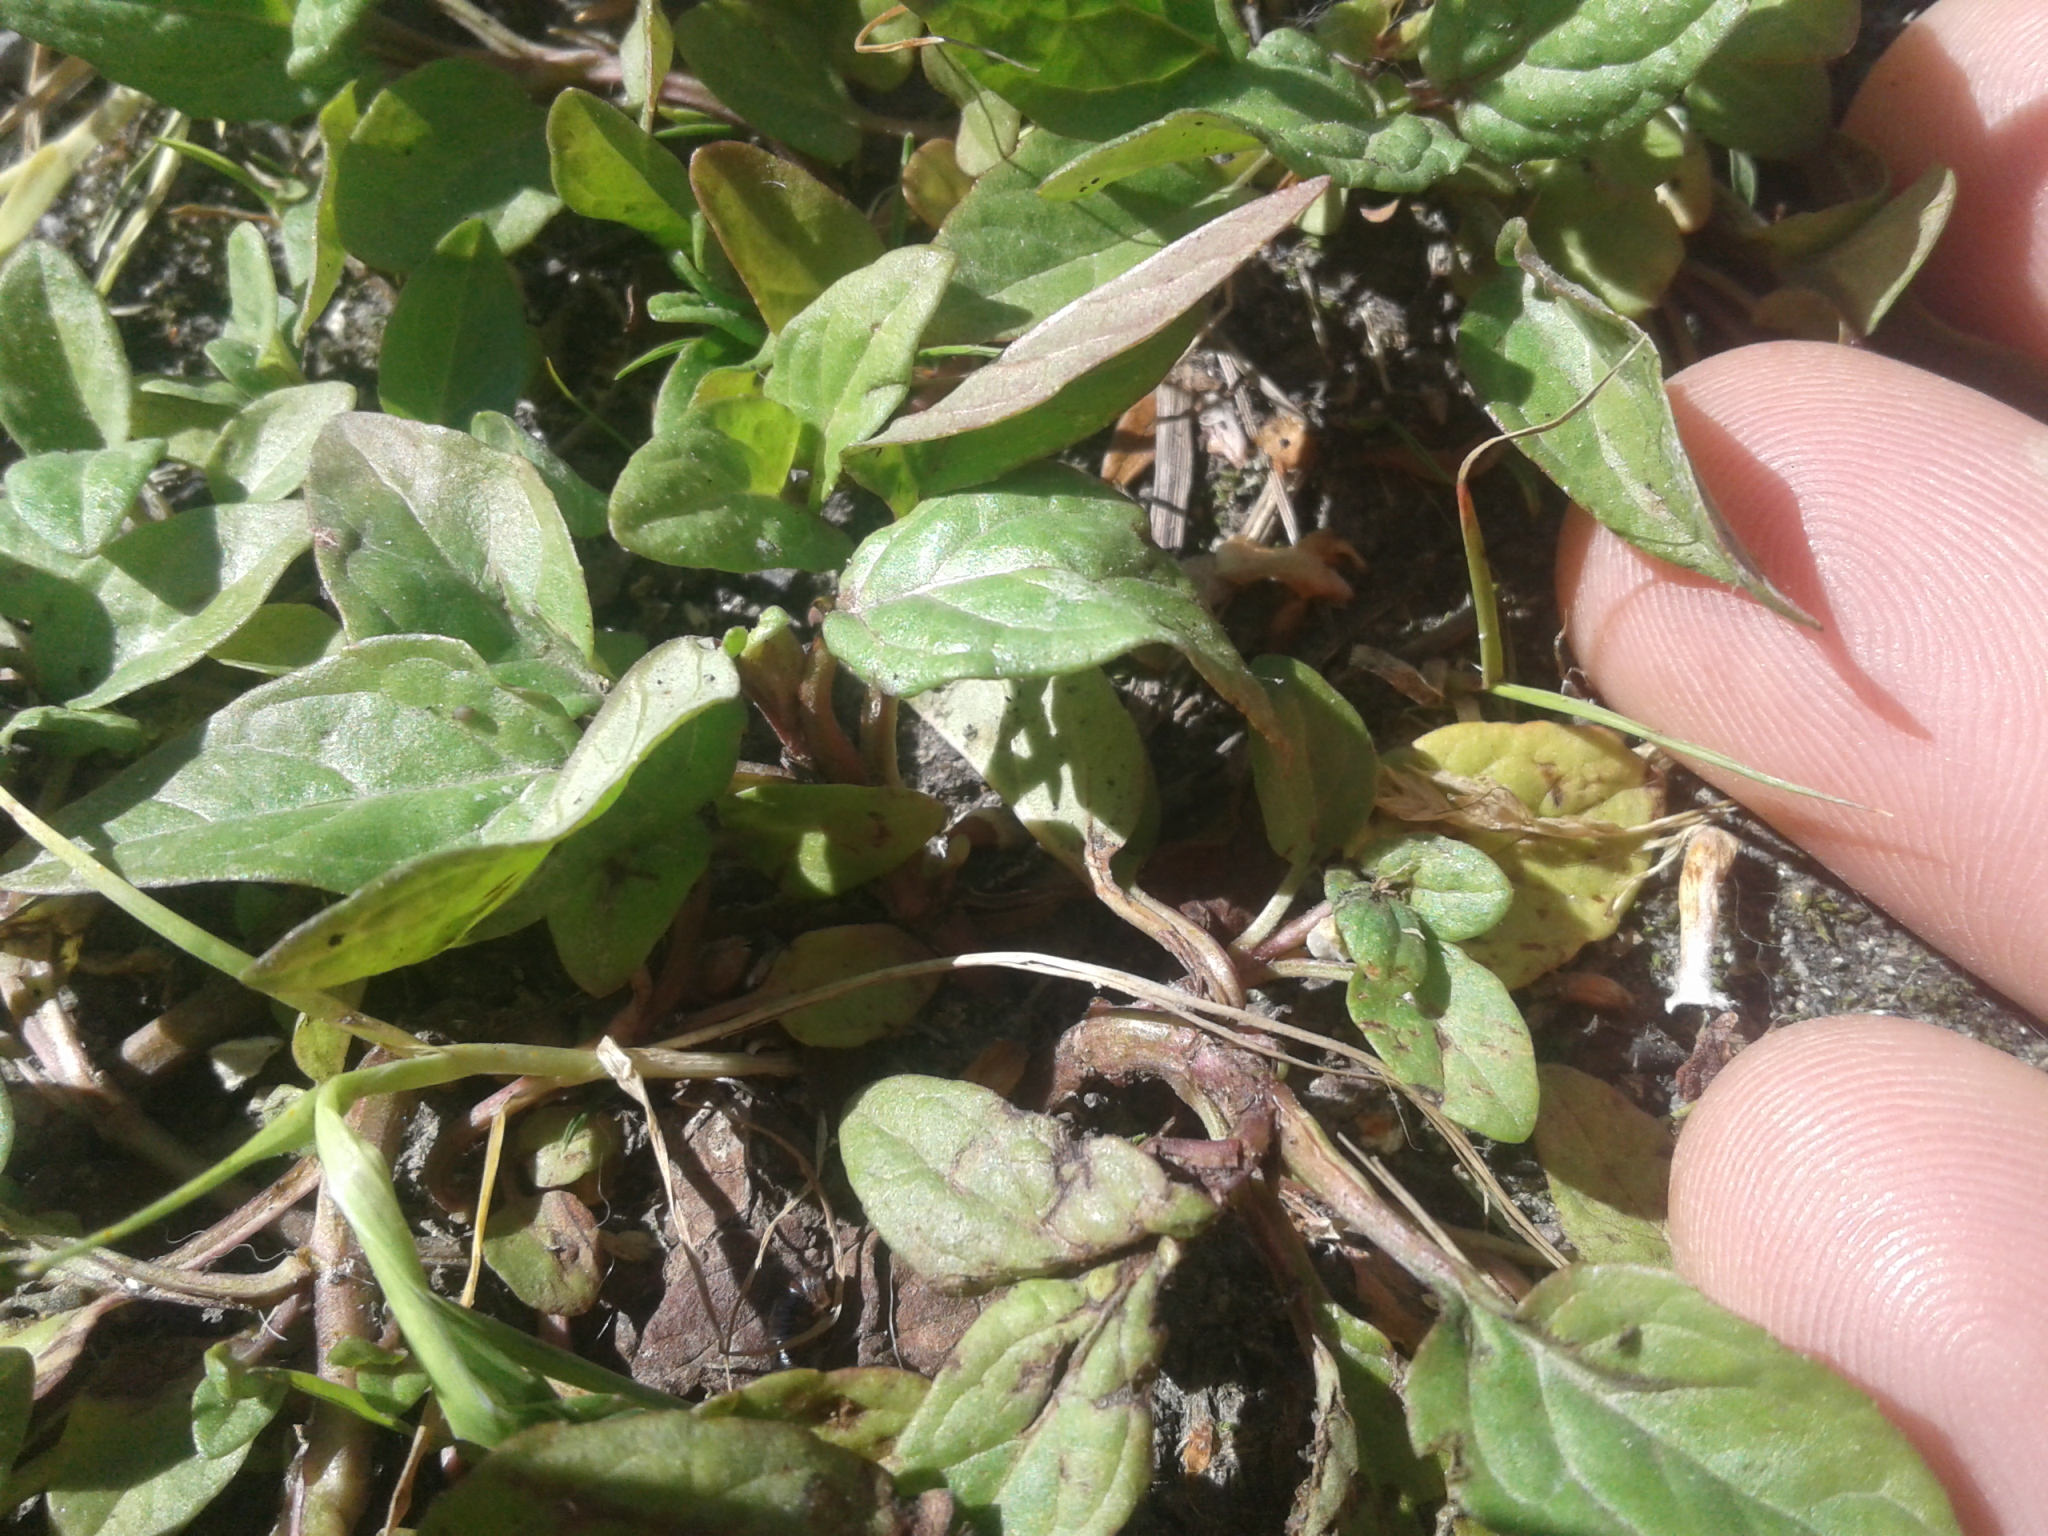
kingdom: Plantae
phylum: Tracheophyta
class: Magnoliopsida
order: Lamiales
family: Lamiaceae
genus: Prunella
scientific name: Prunella vulgaris
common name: Heal-all
